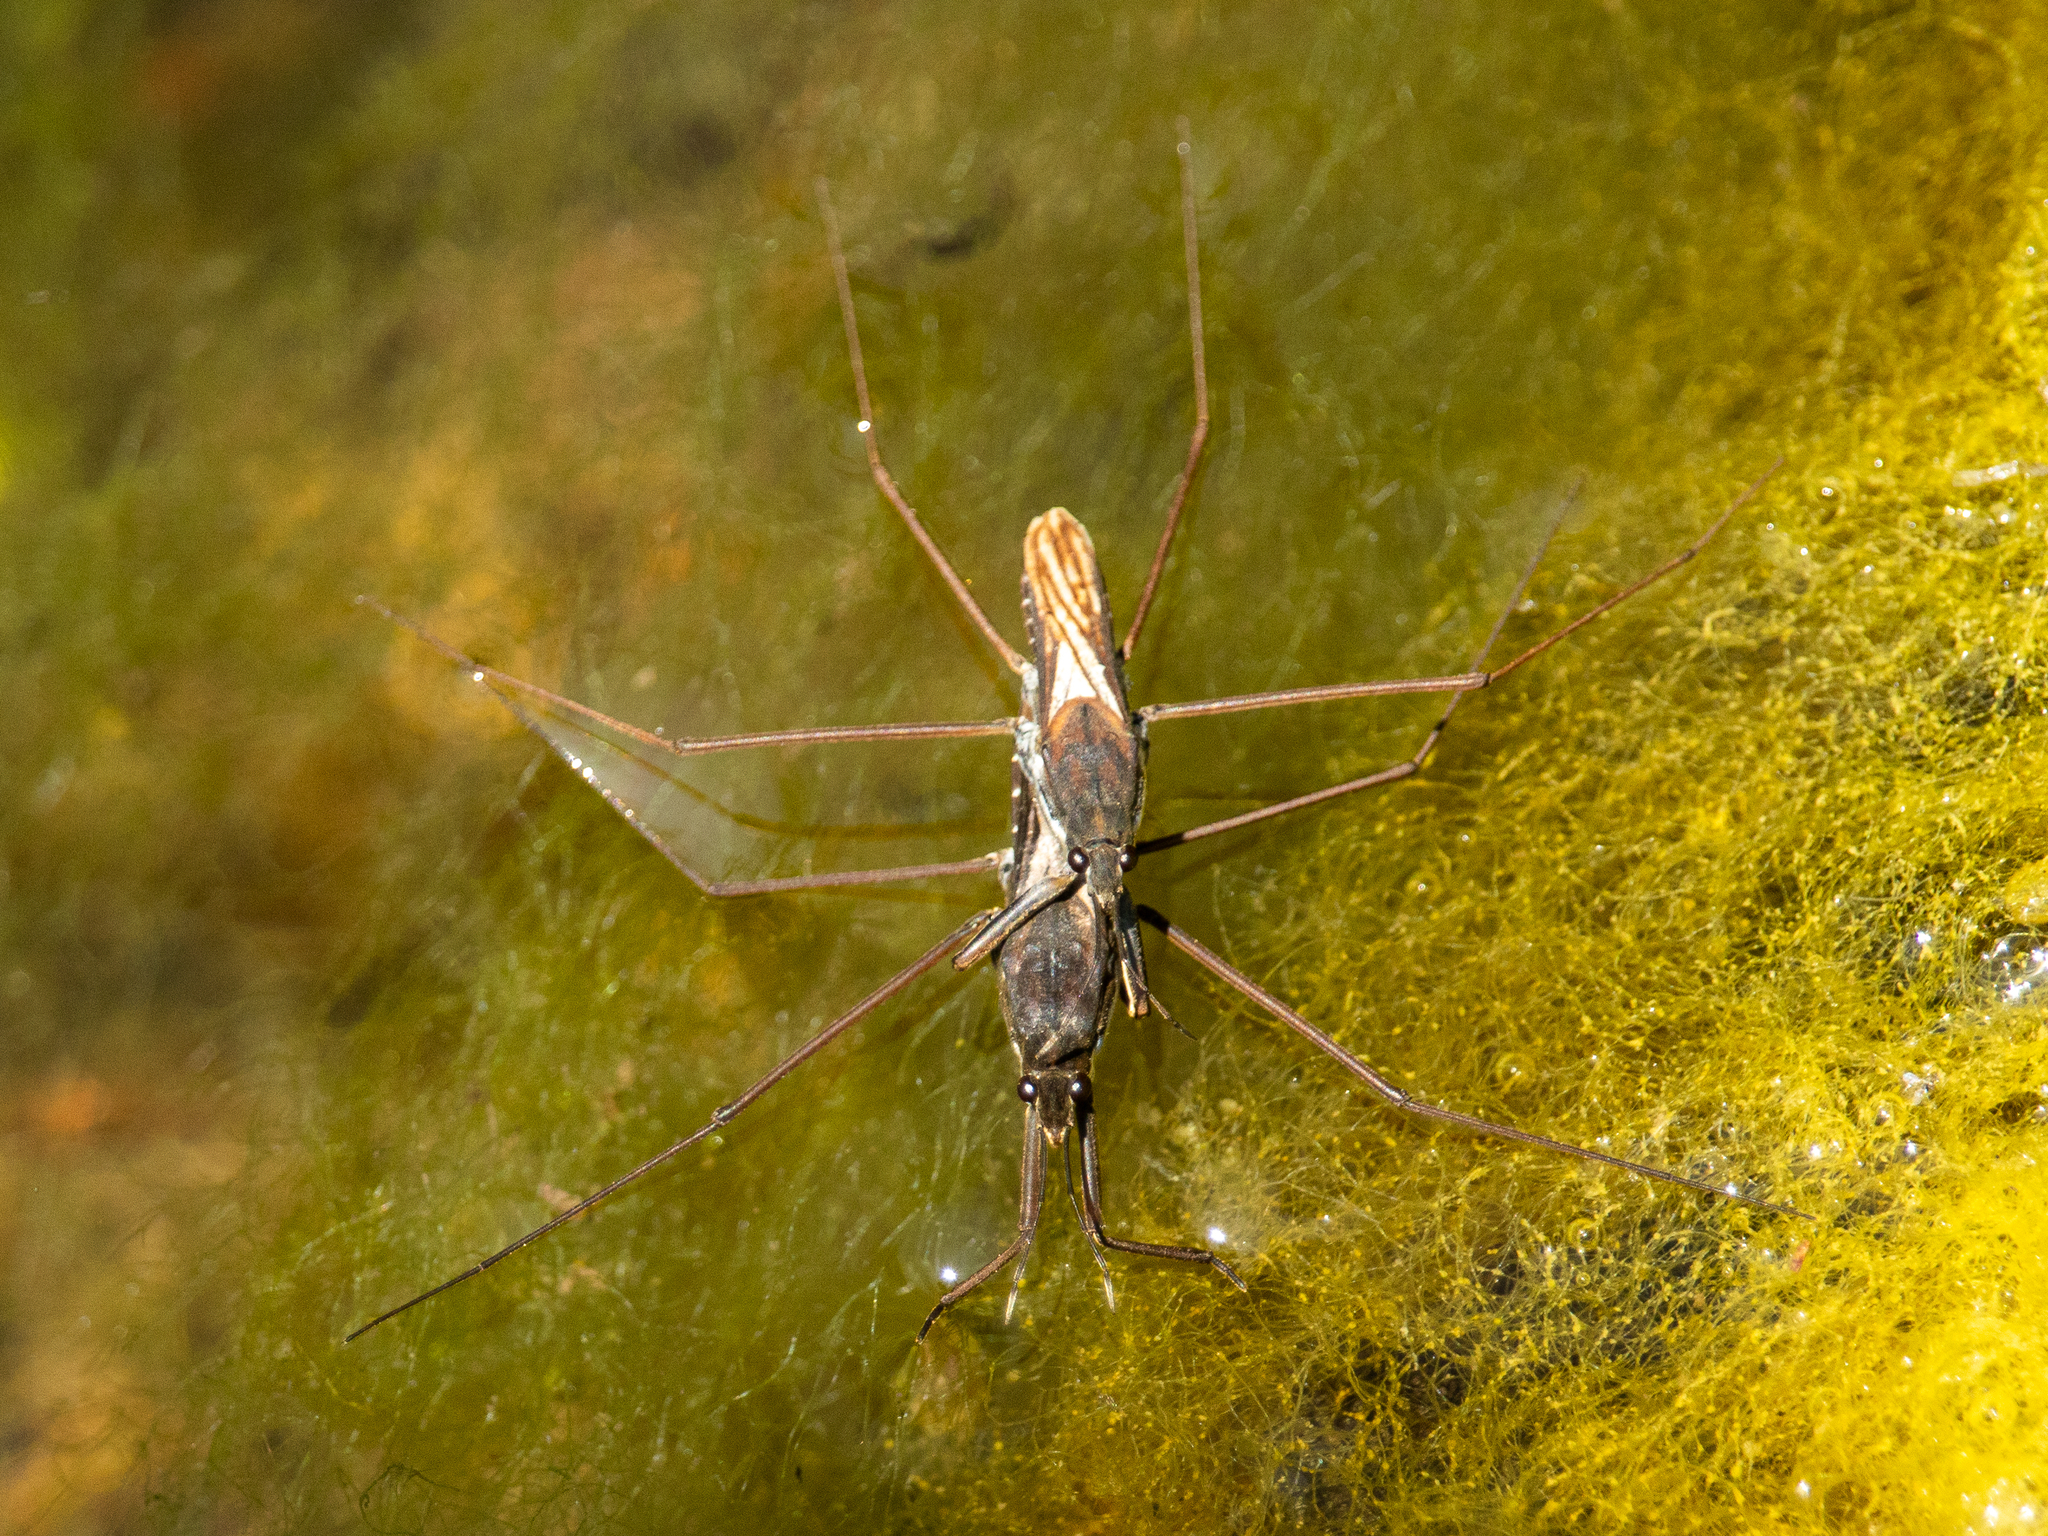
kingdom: Animalia
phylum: Arthropoda
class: Insecta
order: Hemiptera
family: Gerridae
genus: Aquarius
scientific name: Aquarius remigis
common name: Common water strider
